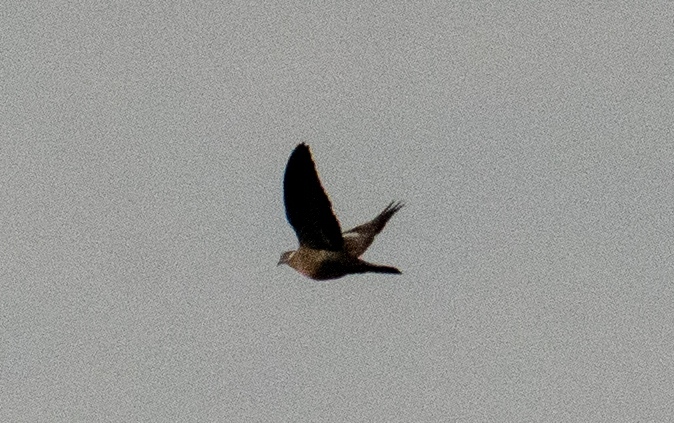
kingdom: Animalia
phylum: Chordata
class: Aves
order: Columbiformes
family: Columbidae
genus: Columba
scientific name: Columba palumbus
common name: Common wood pigeon
